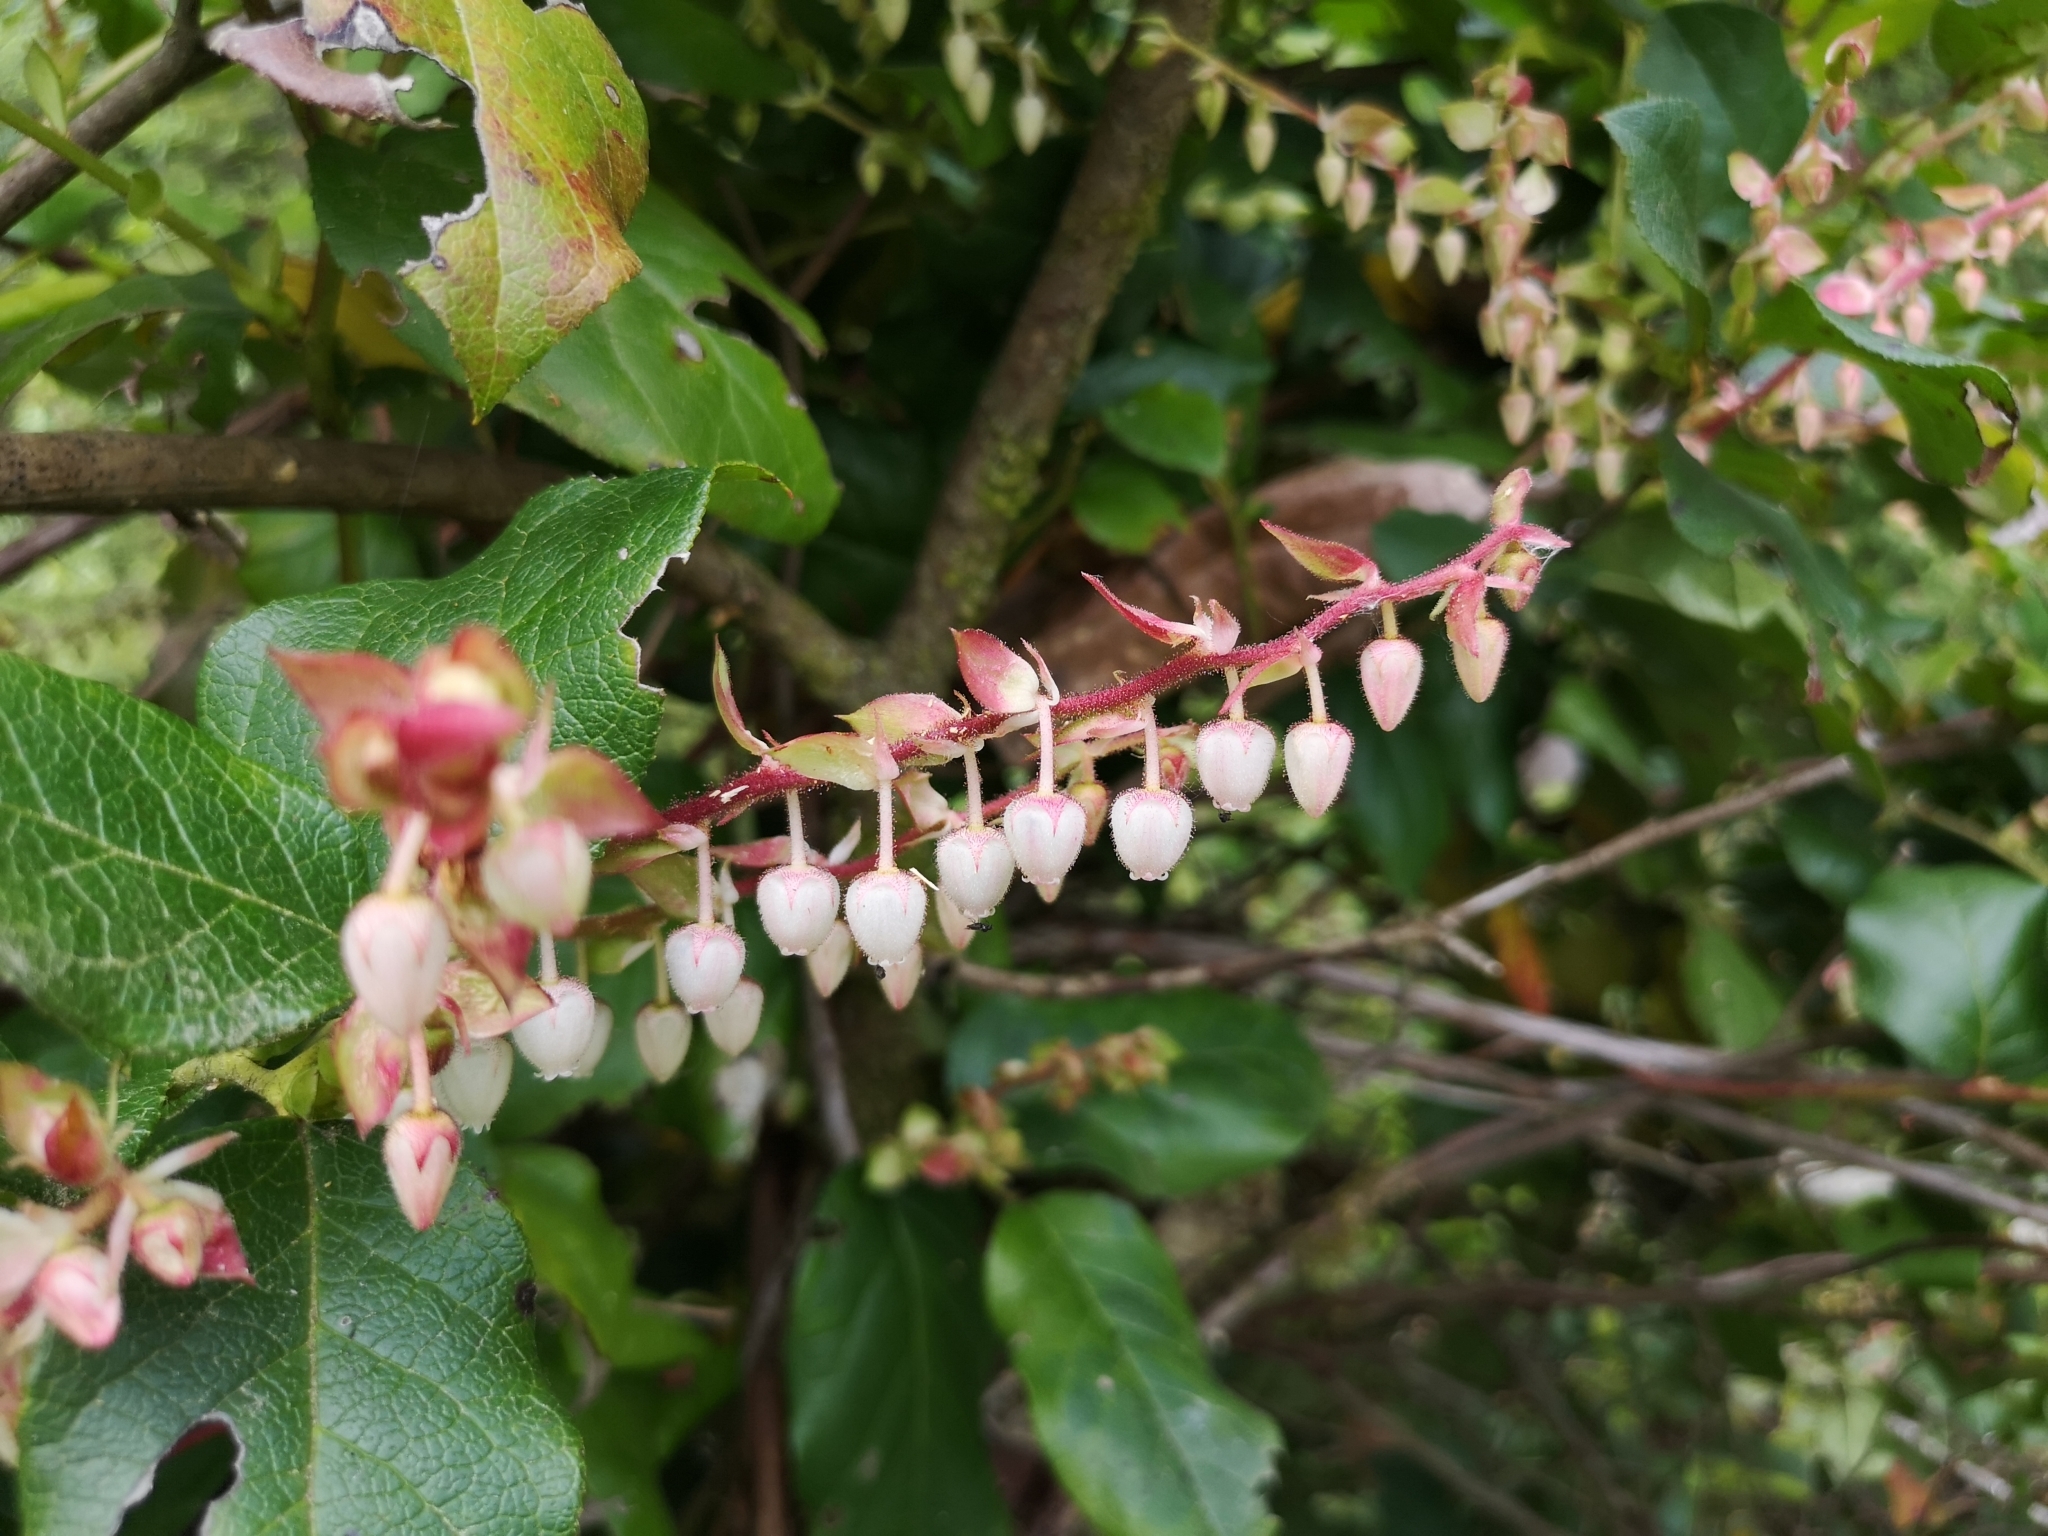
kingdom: Plantae
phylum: Tracheophyta
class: Magnoliopsida
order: Ericales
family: Ericaceae
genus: Gaultheria
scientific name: Gaultheria shallon
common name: Shallon
